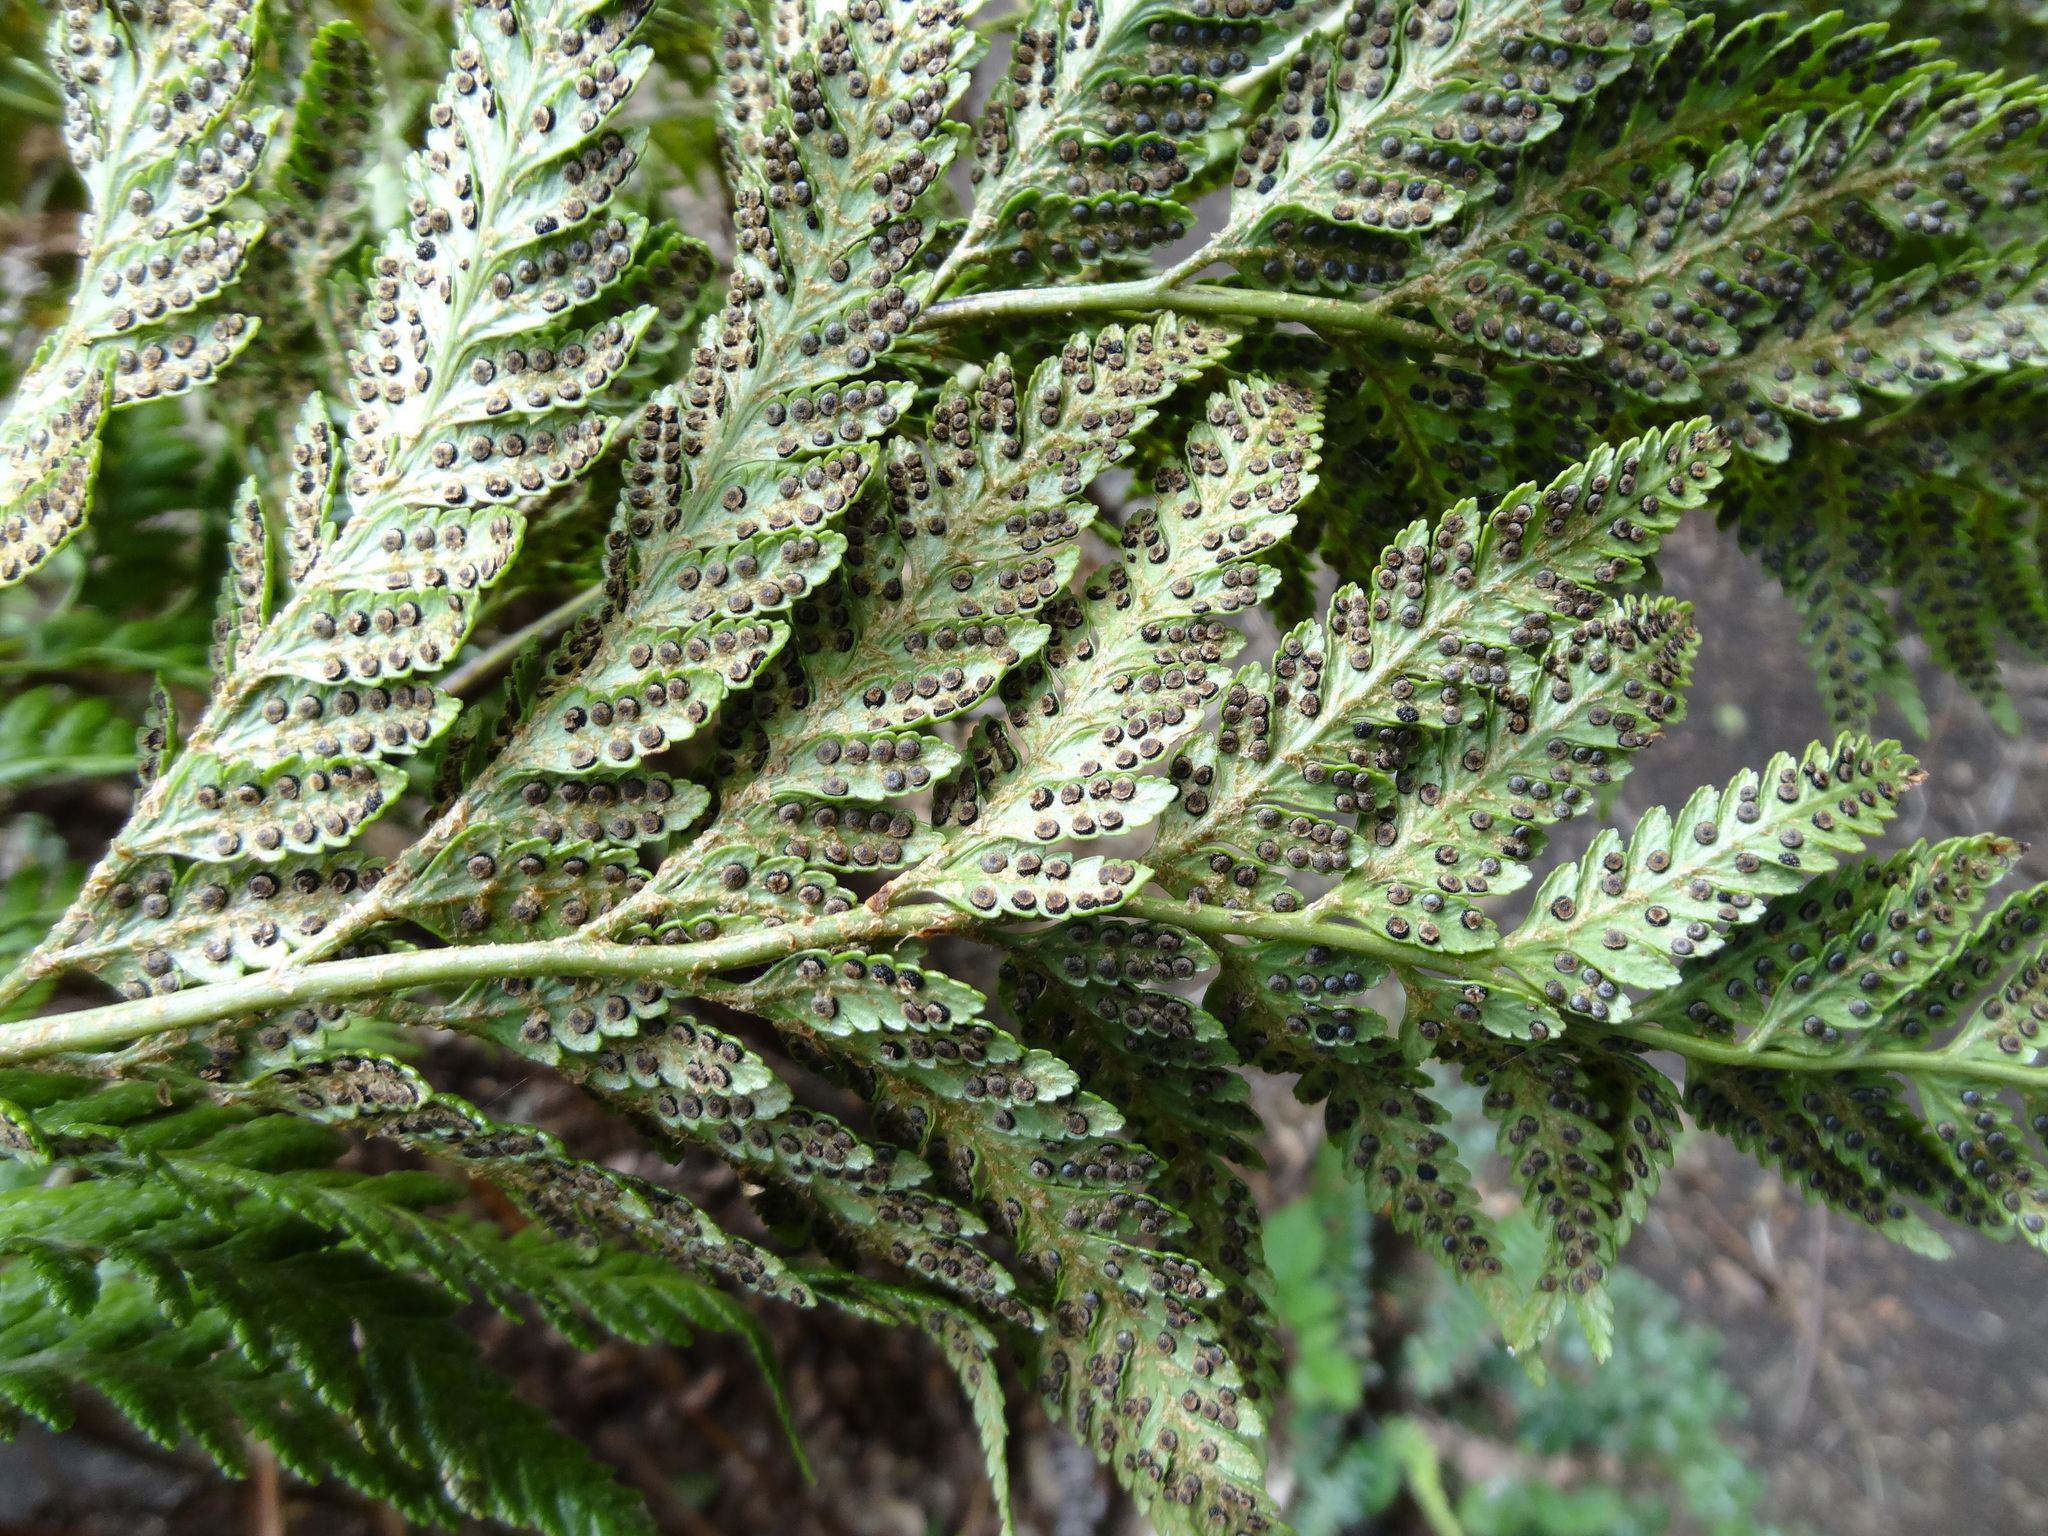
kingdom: Plantae
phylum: Tracheophyta
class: Polypodiopsida
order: Polypodiales
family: Dryopteridaceae
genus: Rumohra
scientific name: Rumohra adiantiformis
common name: Leather fern
